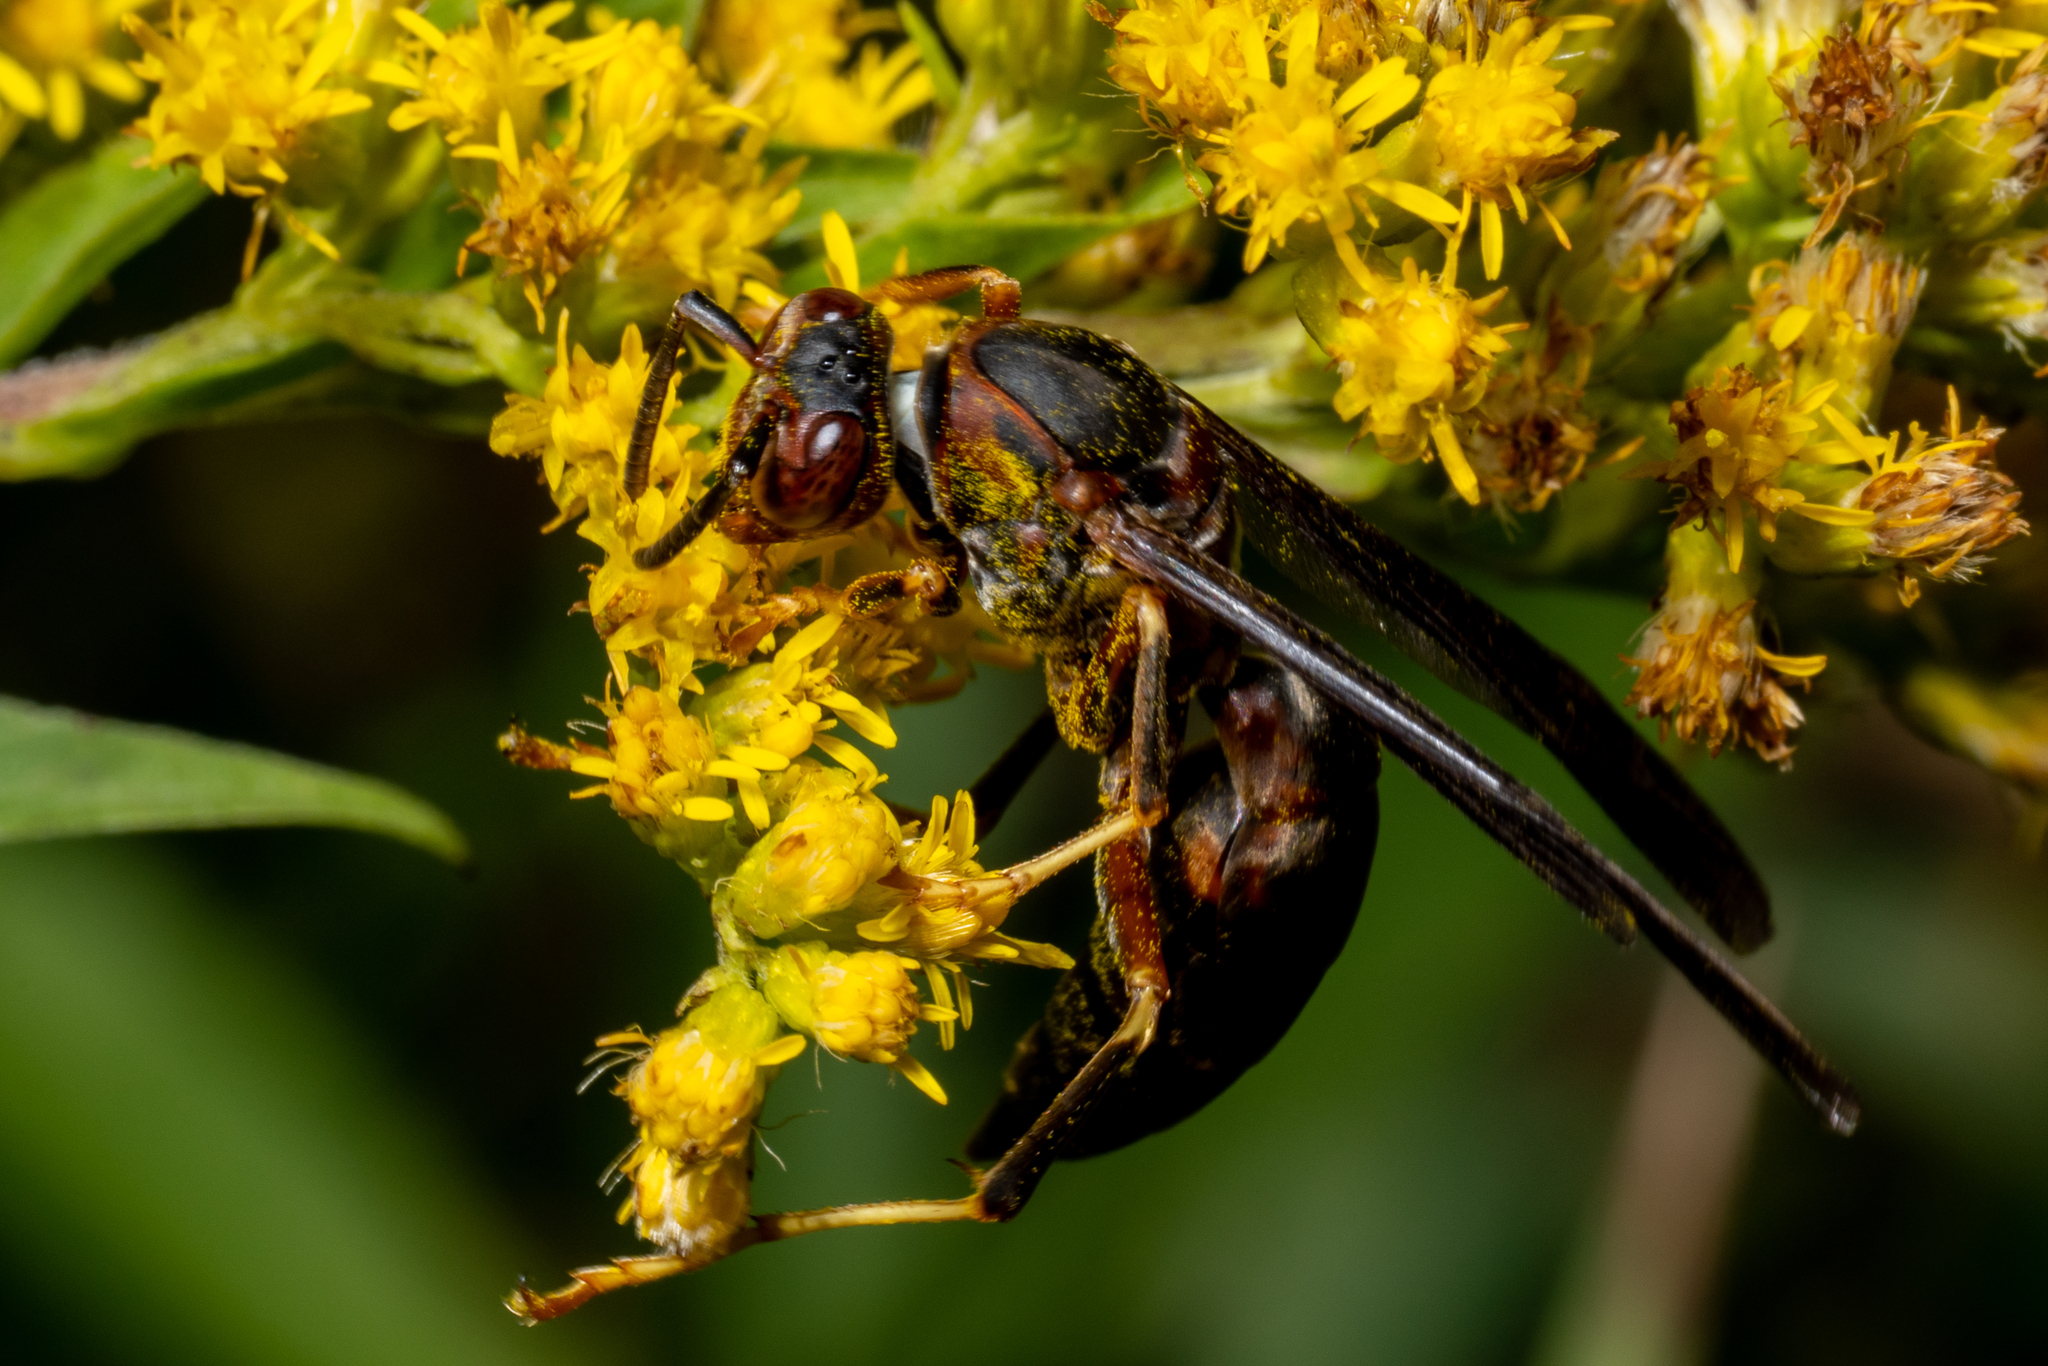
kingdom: Animalia
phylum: Arthropoda
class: Insecta
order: Hymenoptera
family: Eumenidae
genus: Polistes
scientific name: Polistes metricus
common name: Metric paper wasp
